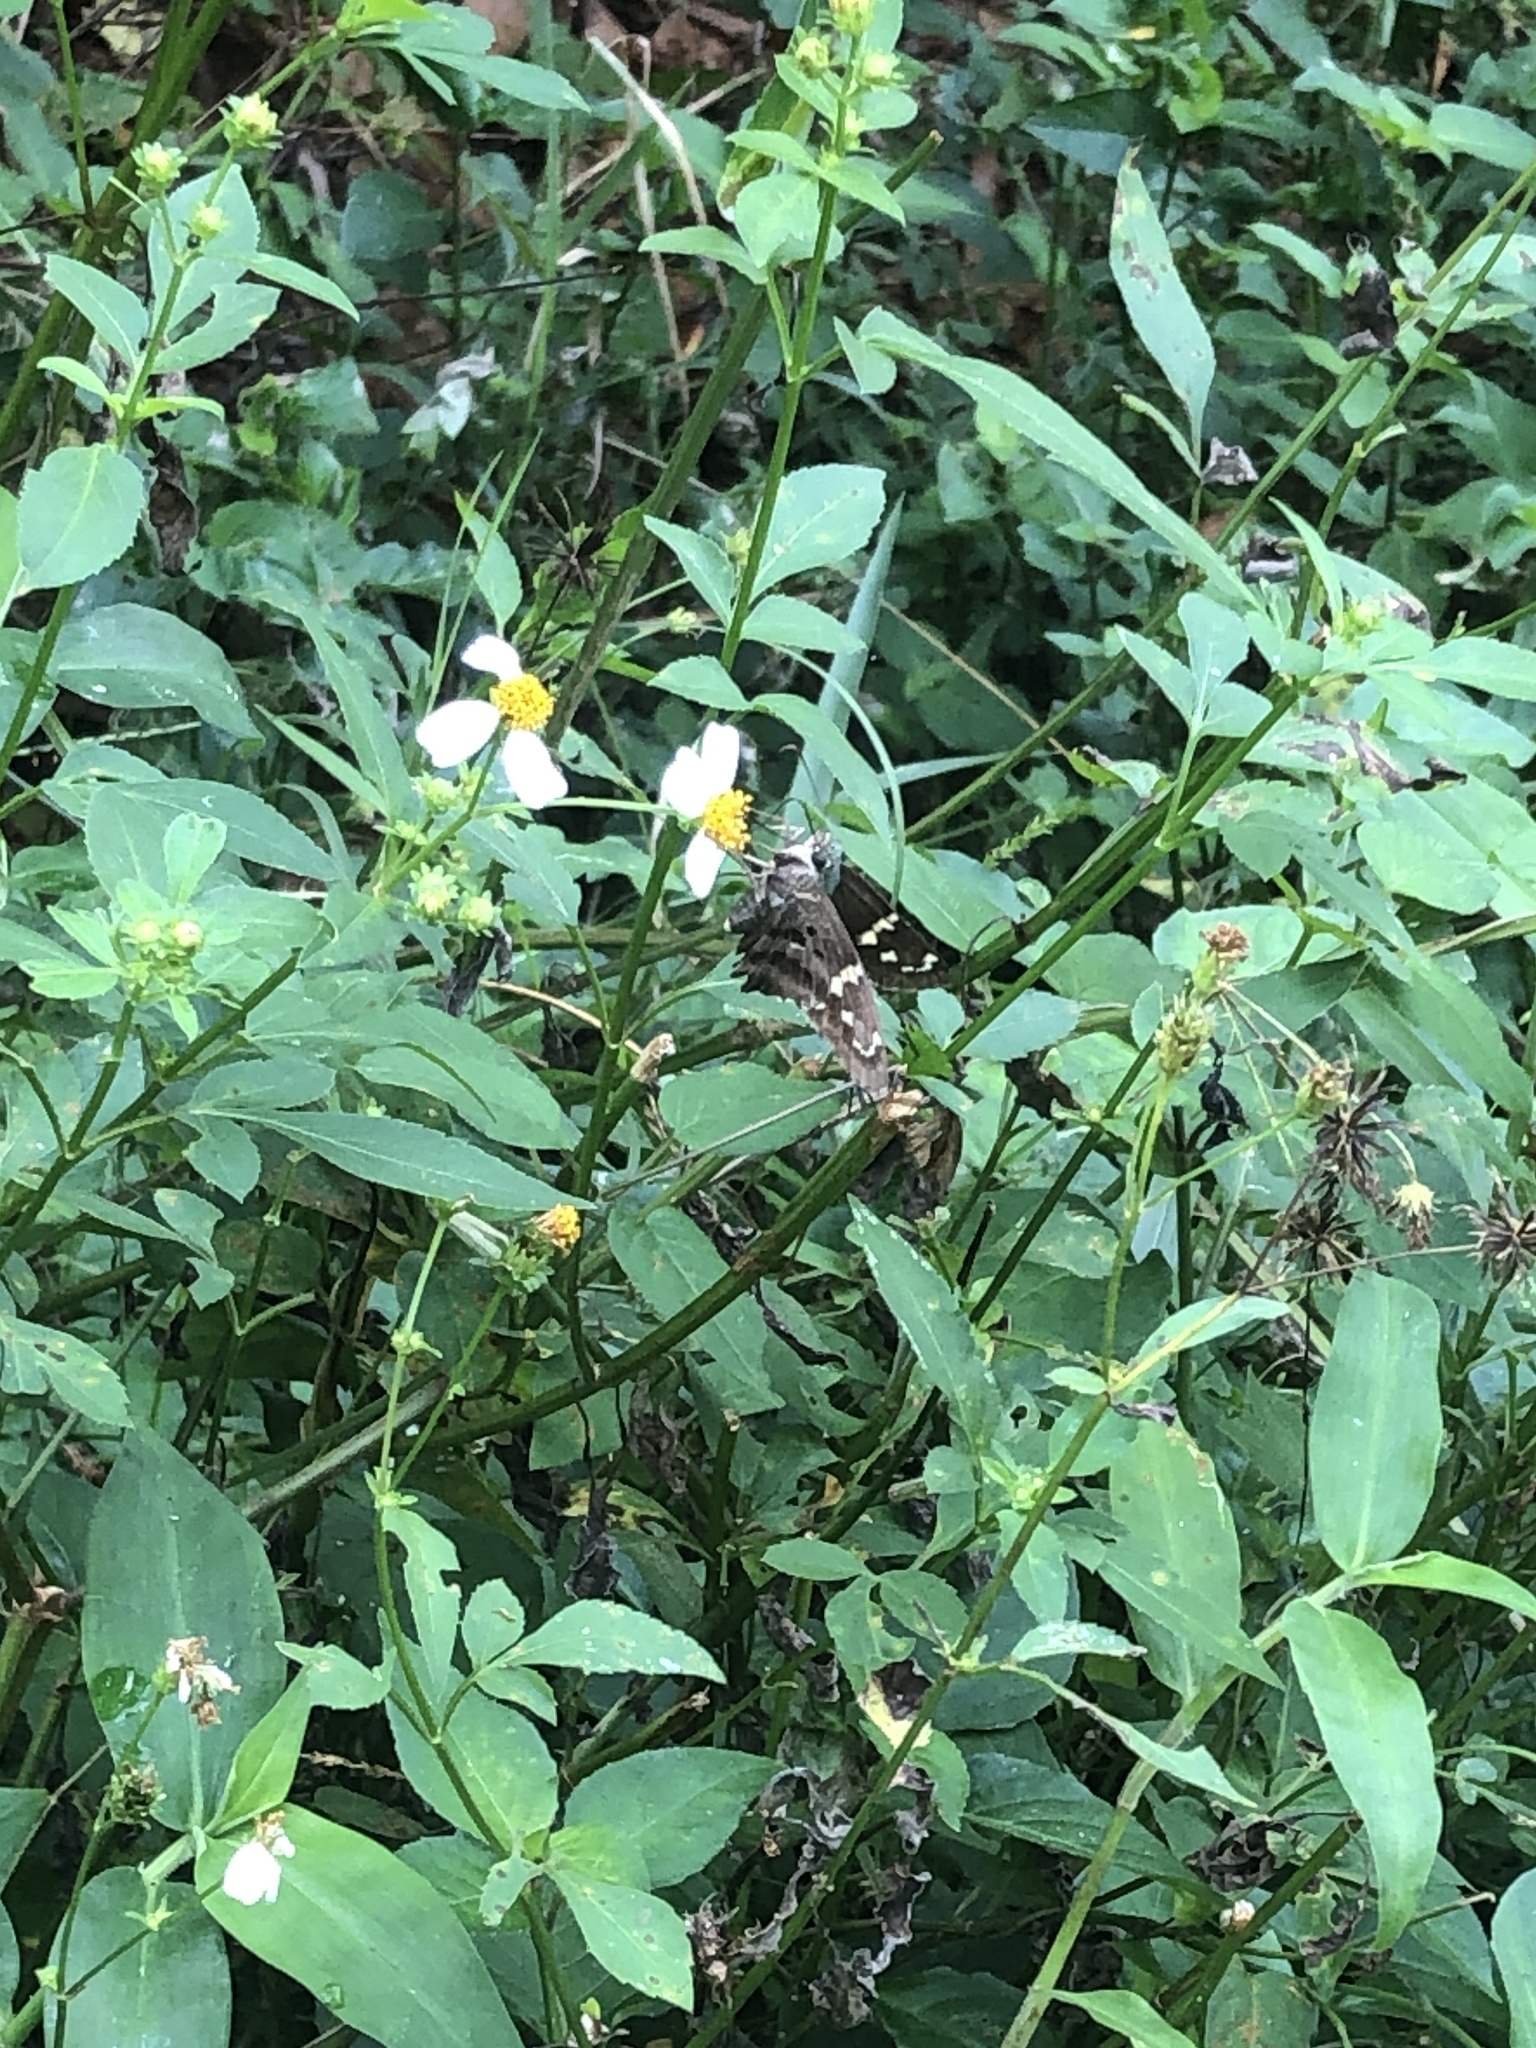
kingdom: Animalia
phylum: Arthropoda
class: Insecta
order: Lepidoptera
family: Hesperiidae
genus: Urbanus
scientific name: Urbanus proteus
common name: Long-tailed skipper
